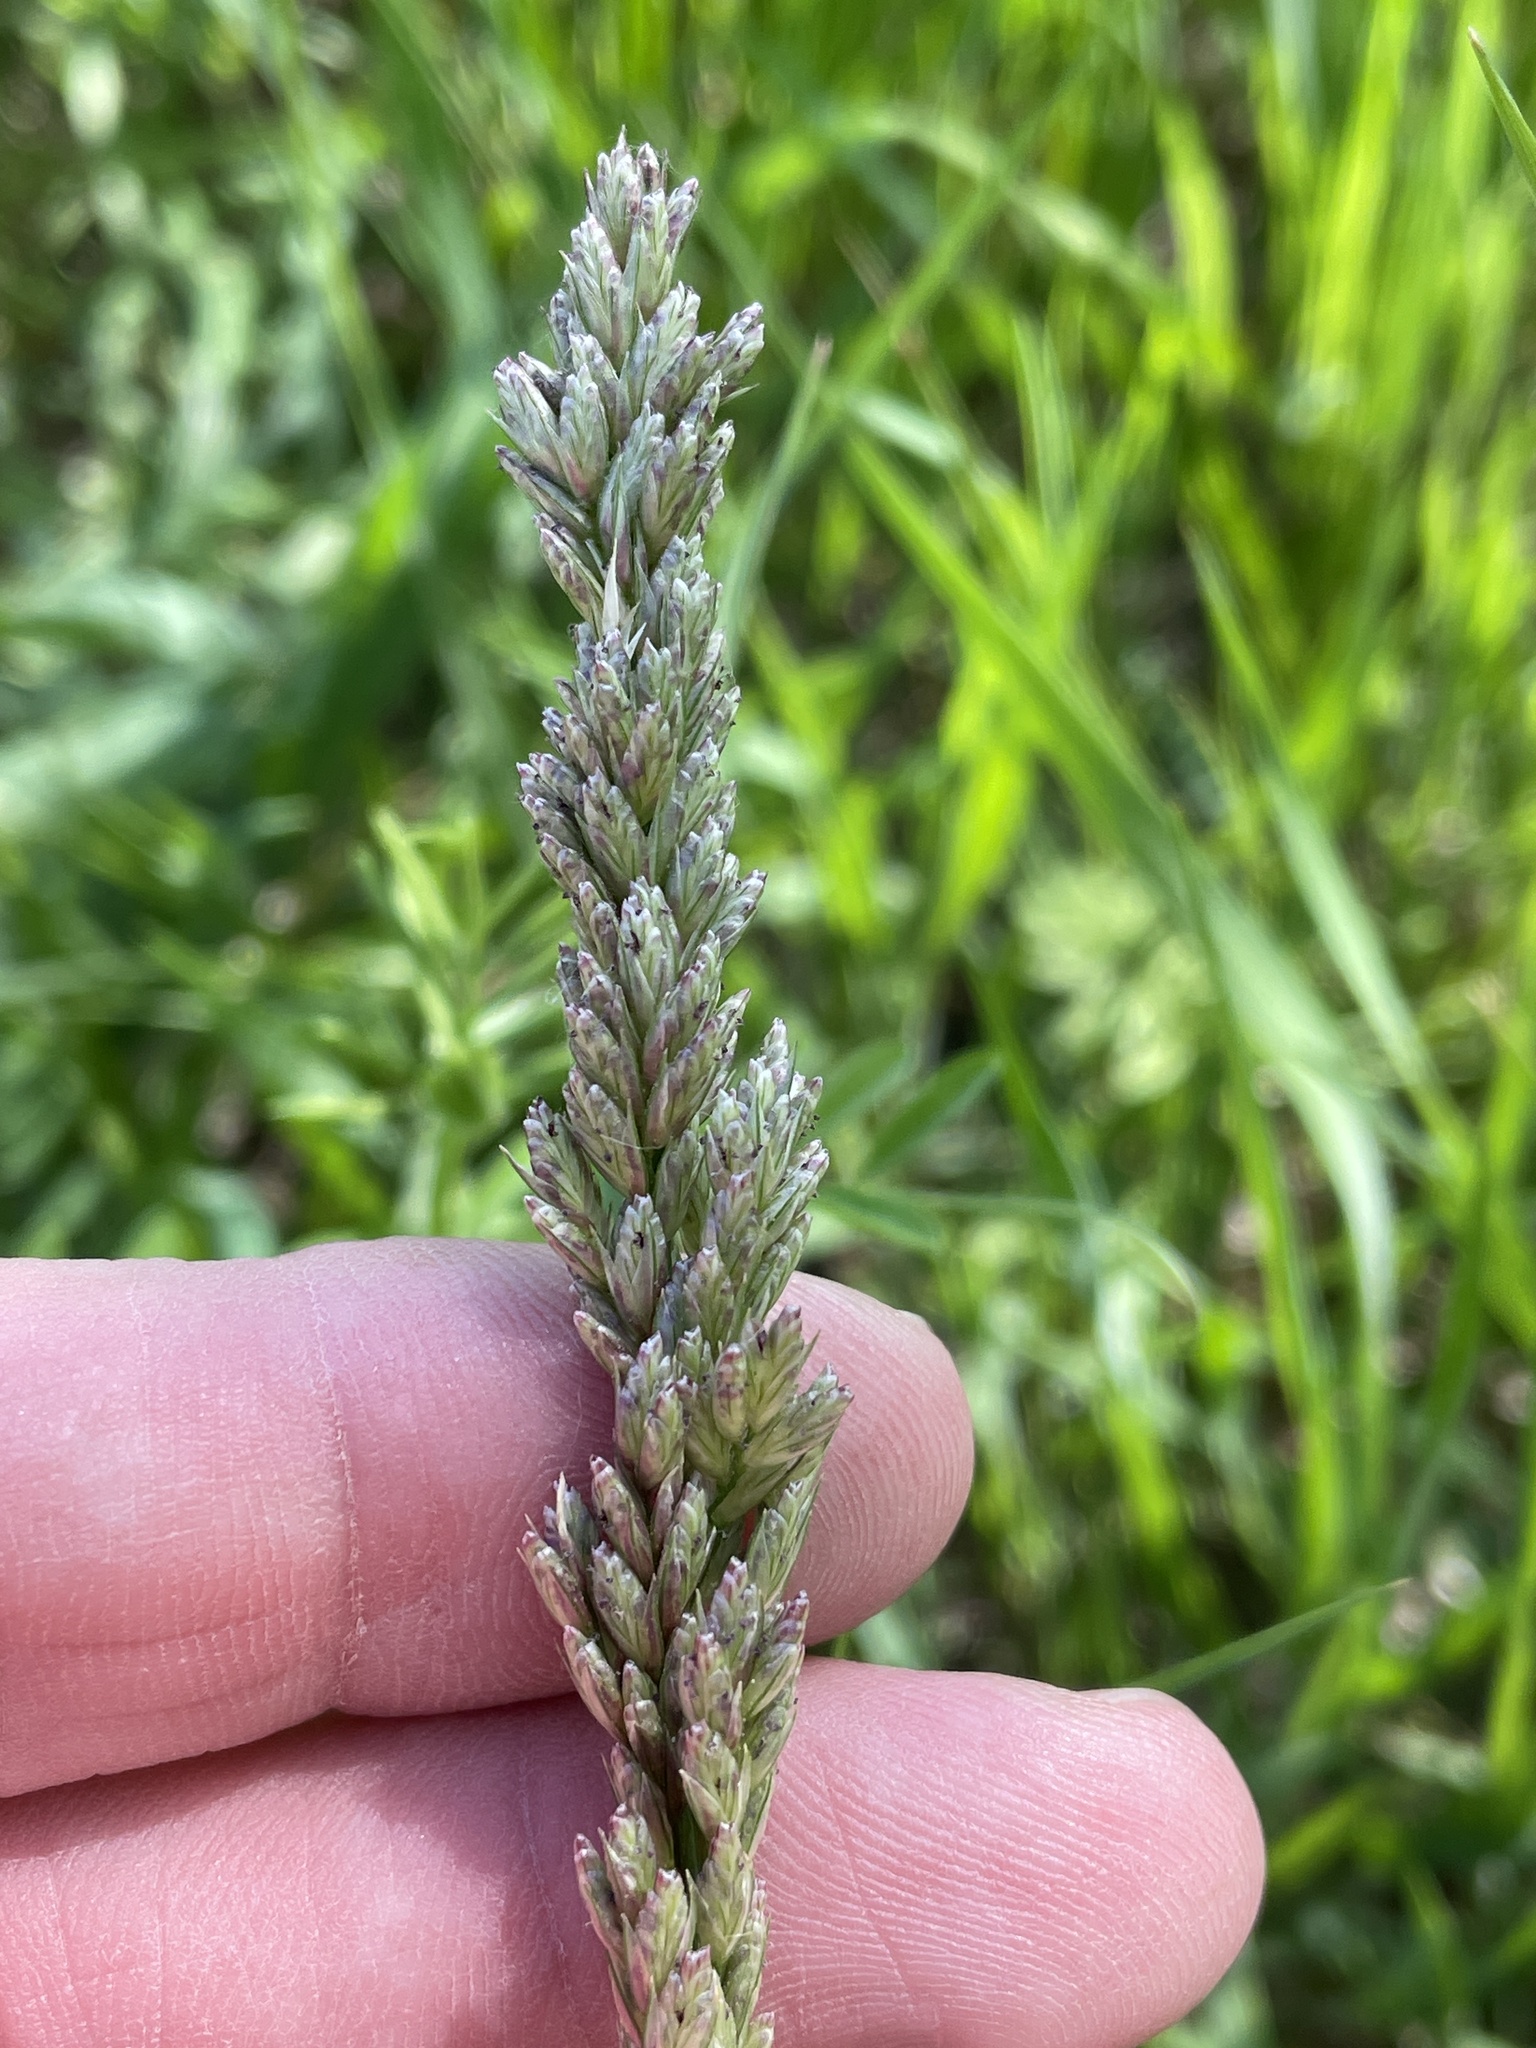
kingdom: Plantae
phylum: Tracheophyta
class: Liliopsida
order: Poales
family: Poaceae
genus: Tridens
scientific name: Tridens albescens
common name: White tridens
